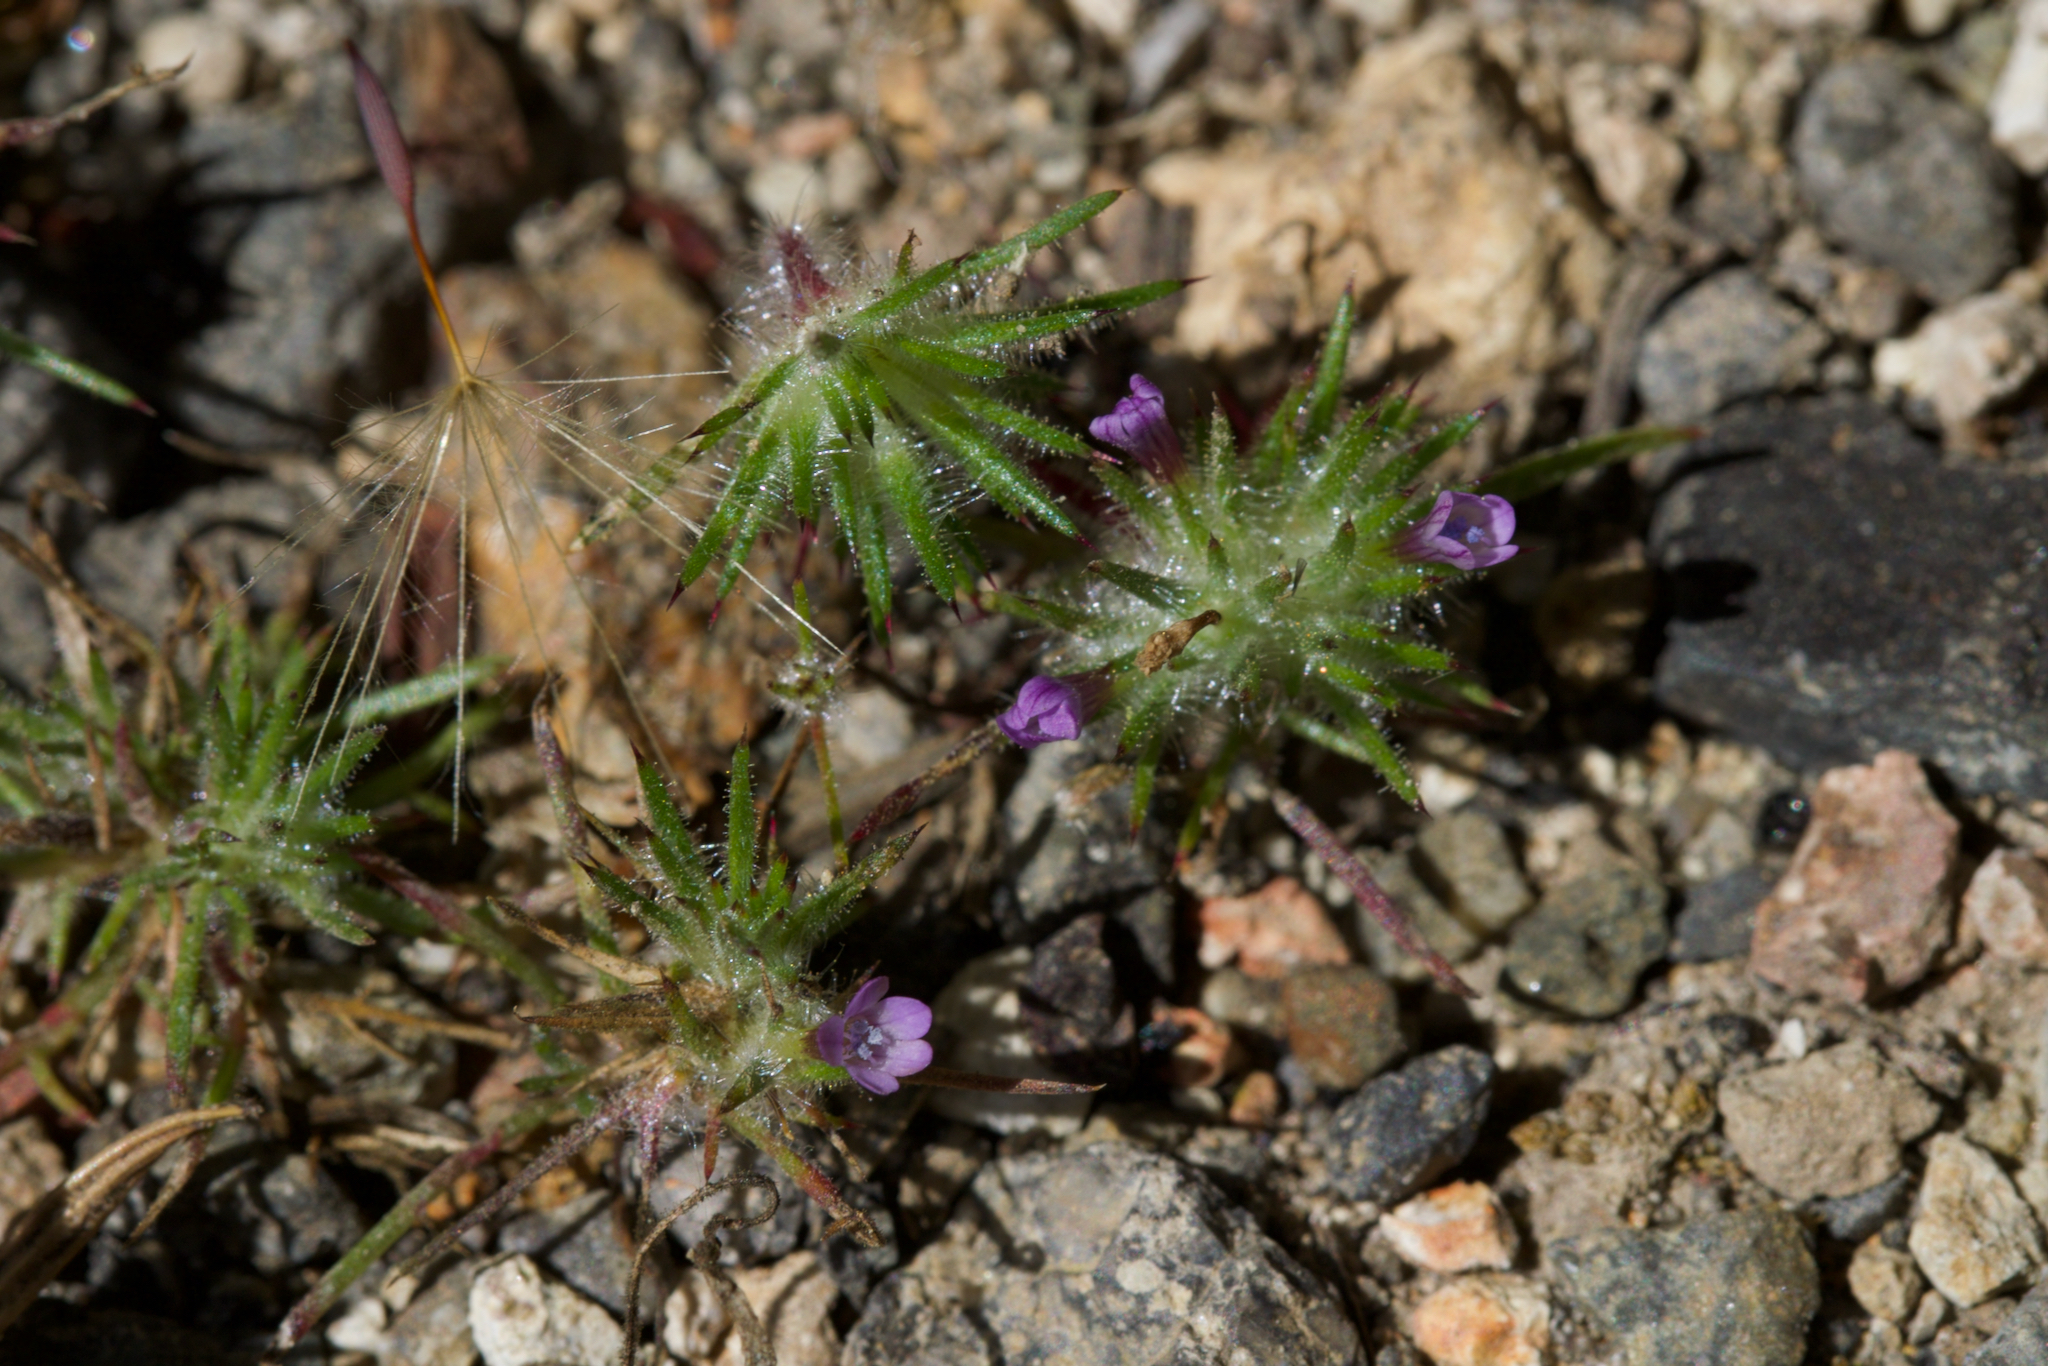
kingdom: Plantae
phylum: Tracheophyta
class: Magnoliopsida
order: Ericales
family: Polemoniaceae
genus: Navarretia
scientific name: Navarretia vividior
